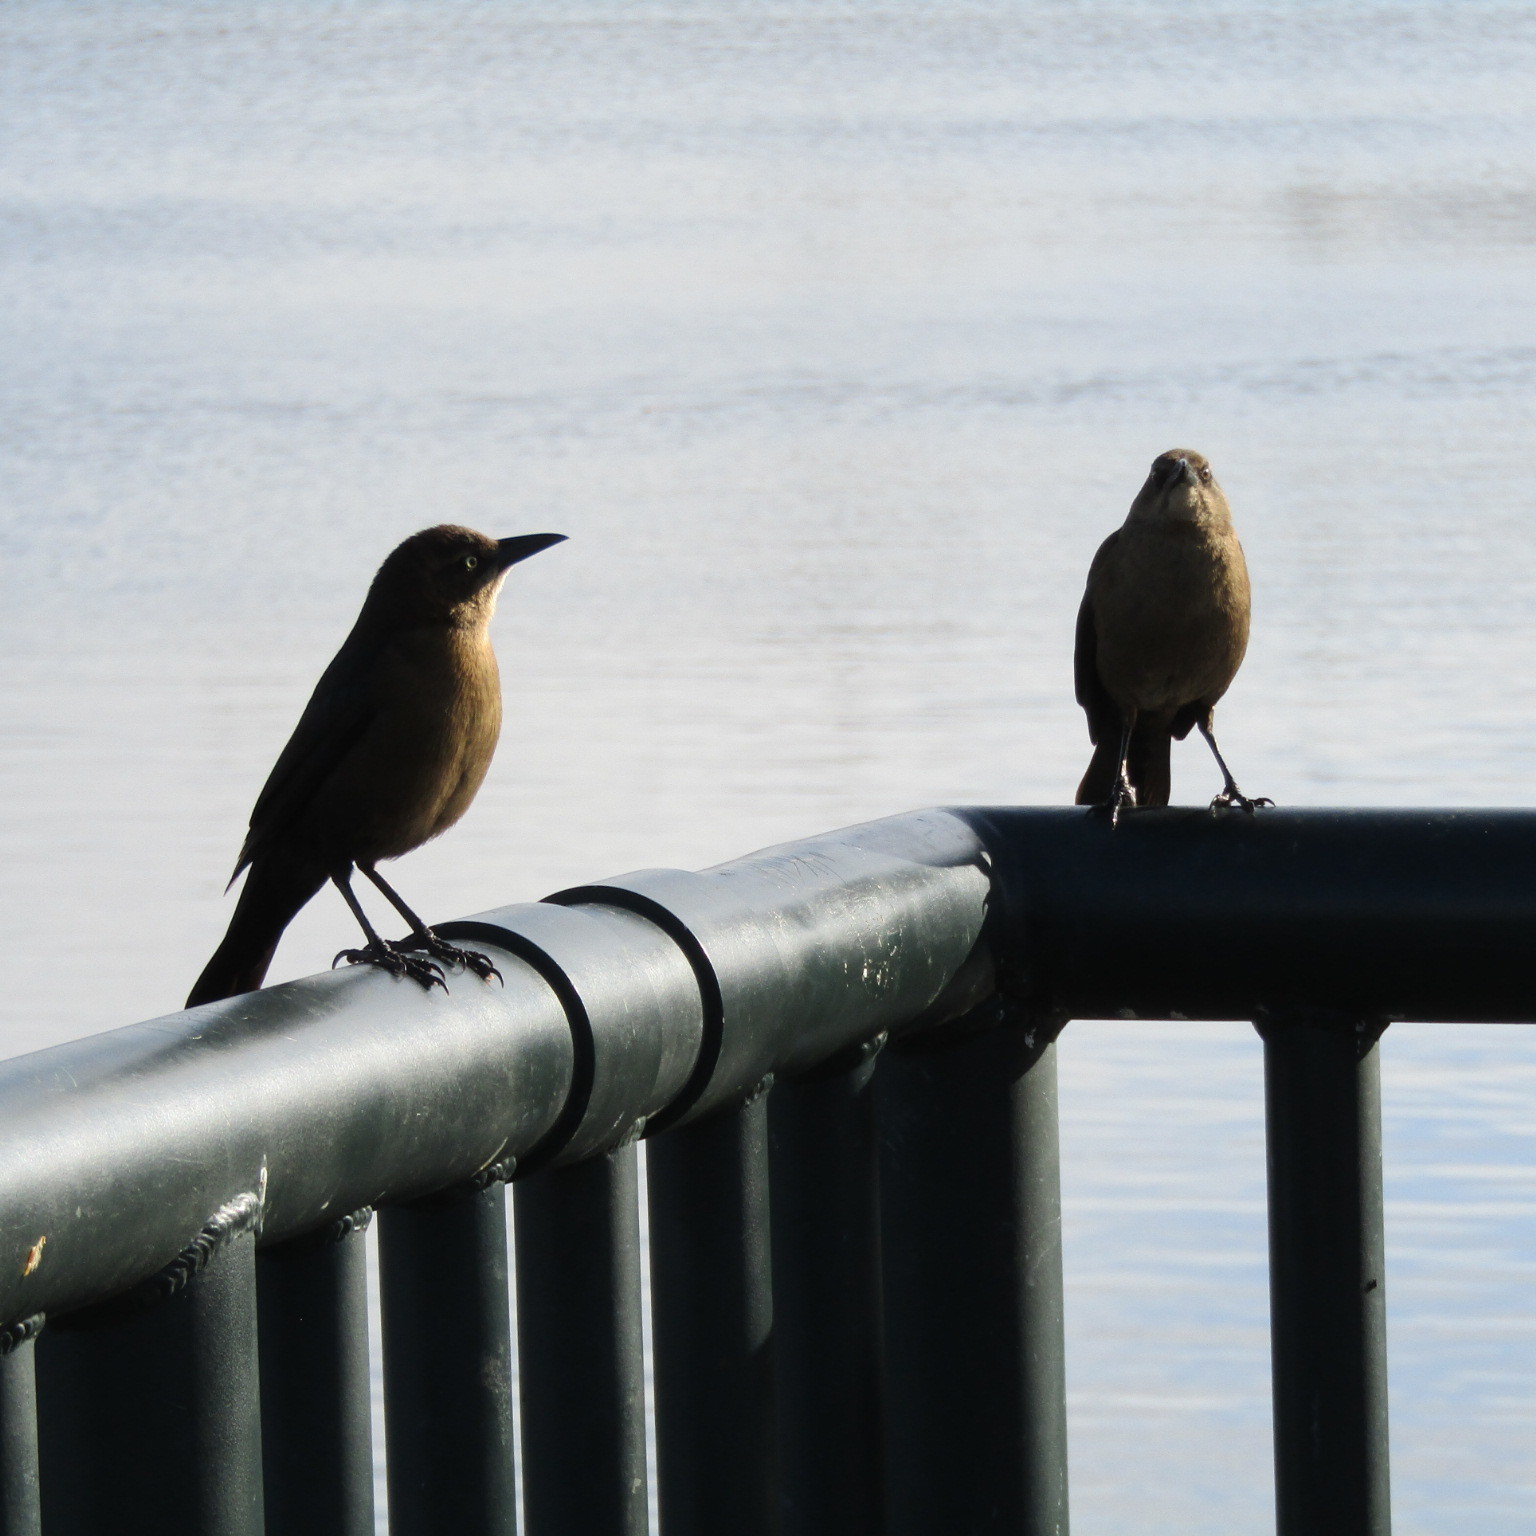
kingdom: Animalia
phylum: Chordata
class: Aves
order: Passeriformes
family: Icteridae
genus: Quiscalus
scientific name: Quiscalus mexicanus
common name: Great-tailed grackle
